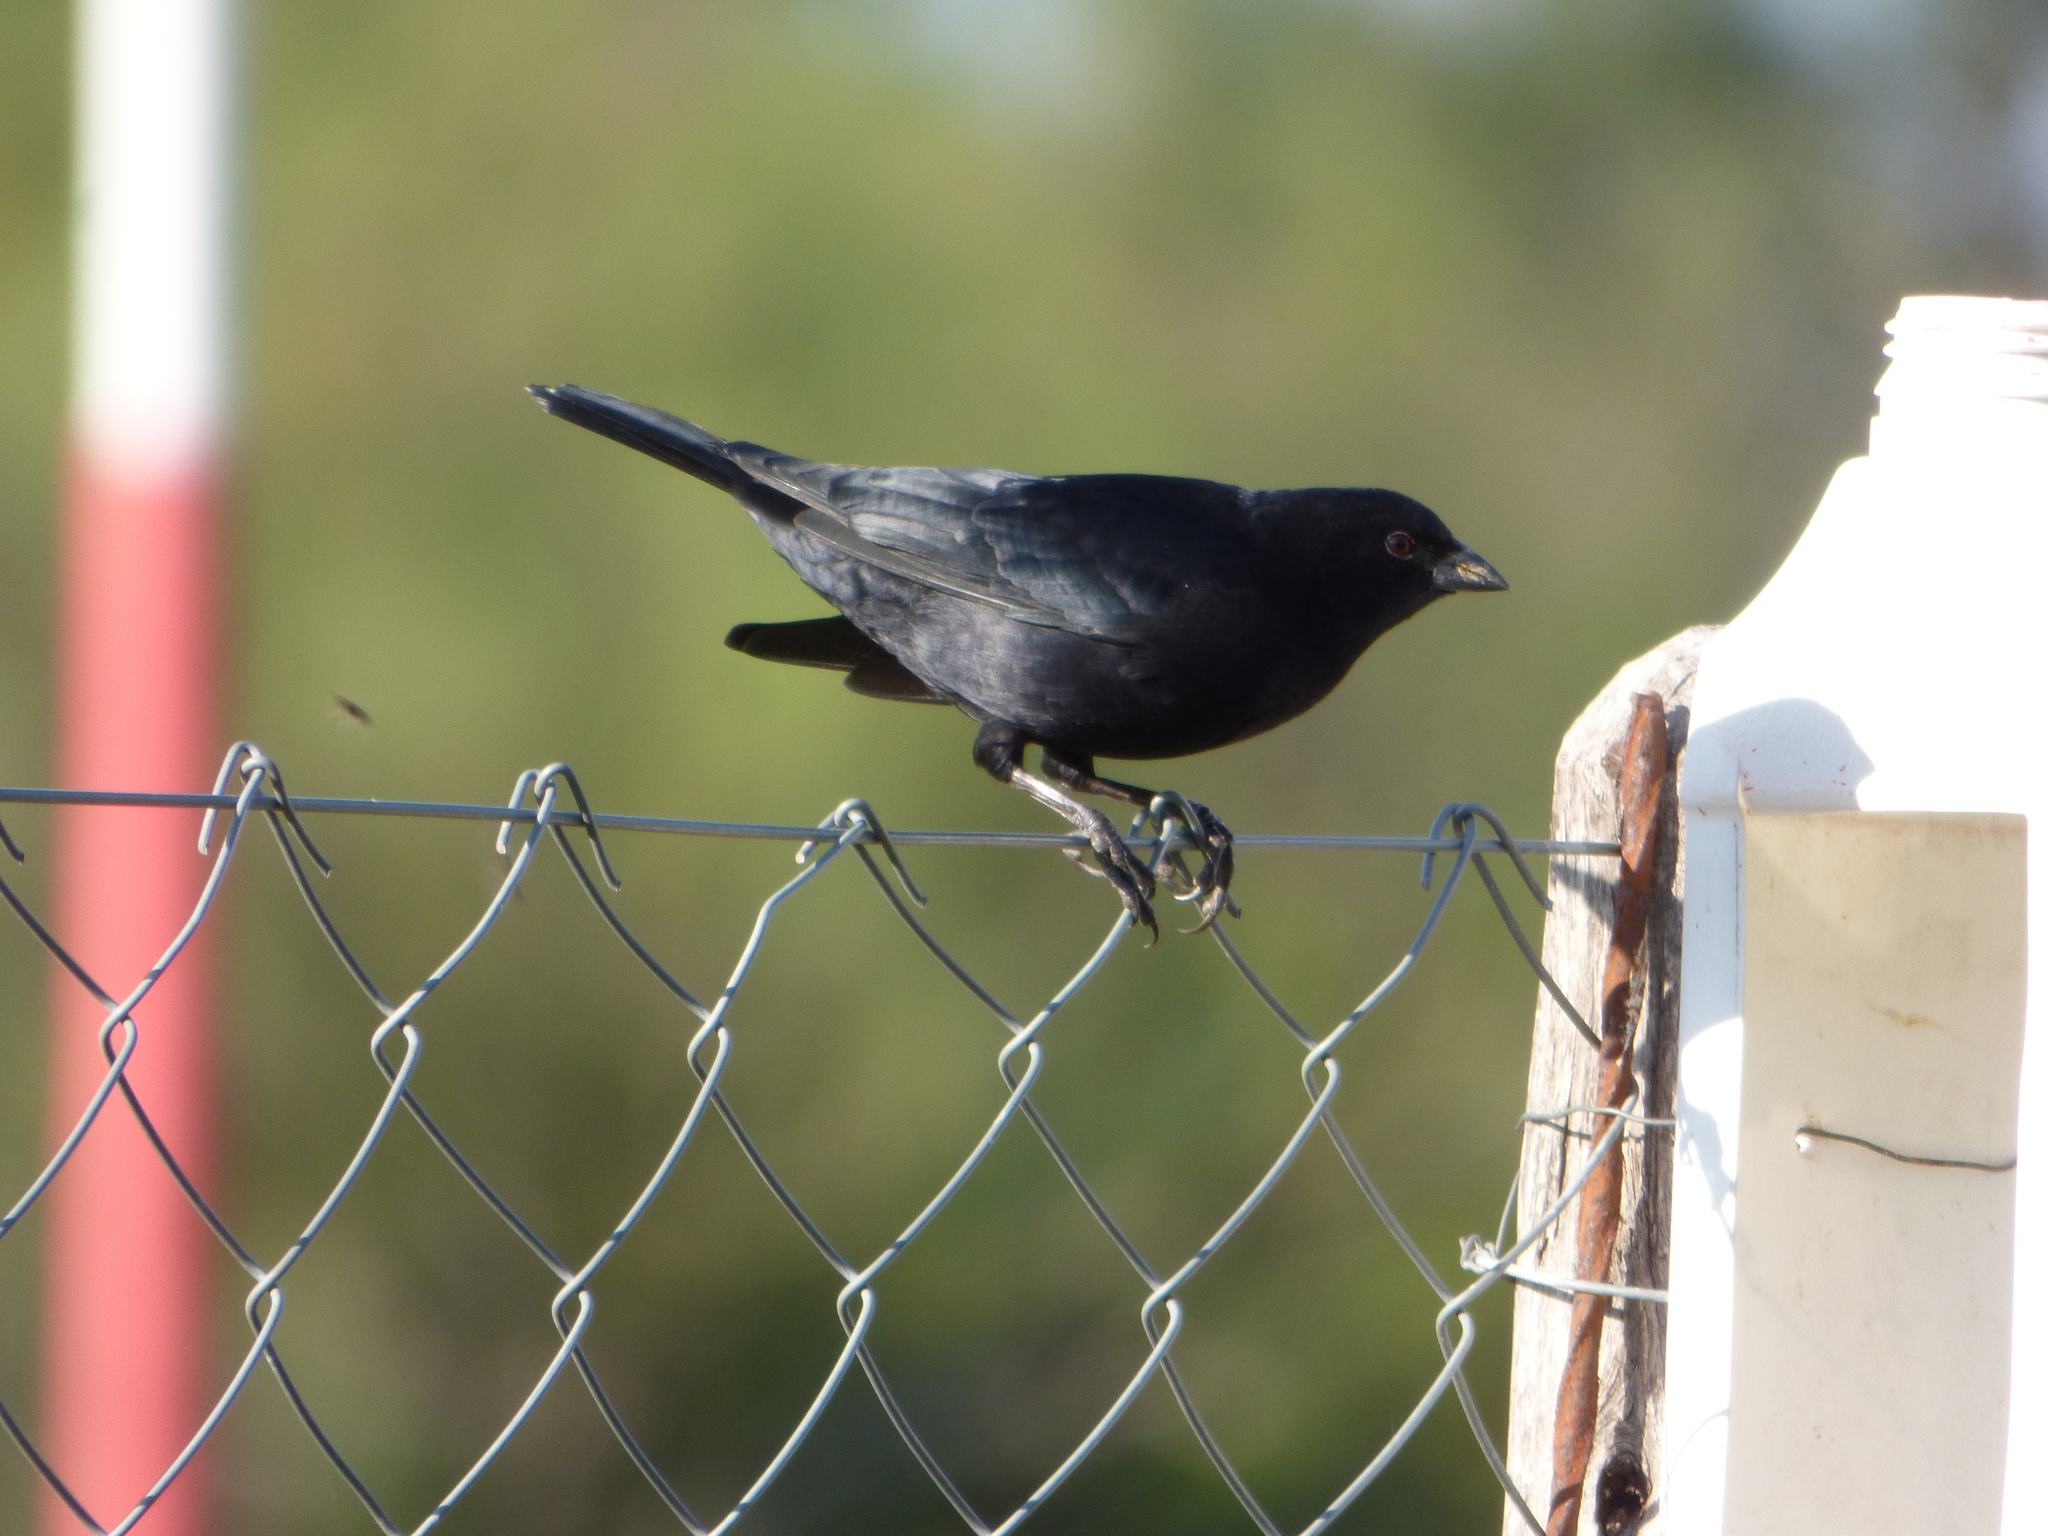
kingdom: Animalia
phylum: Chordata
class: Aves
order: Passeriformes
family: Icteridae
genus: Molothrus
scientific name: Molothrus rufoaxillaris
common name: Screaming cowbird
